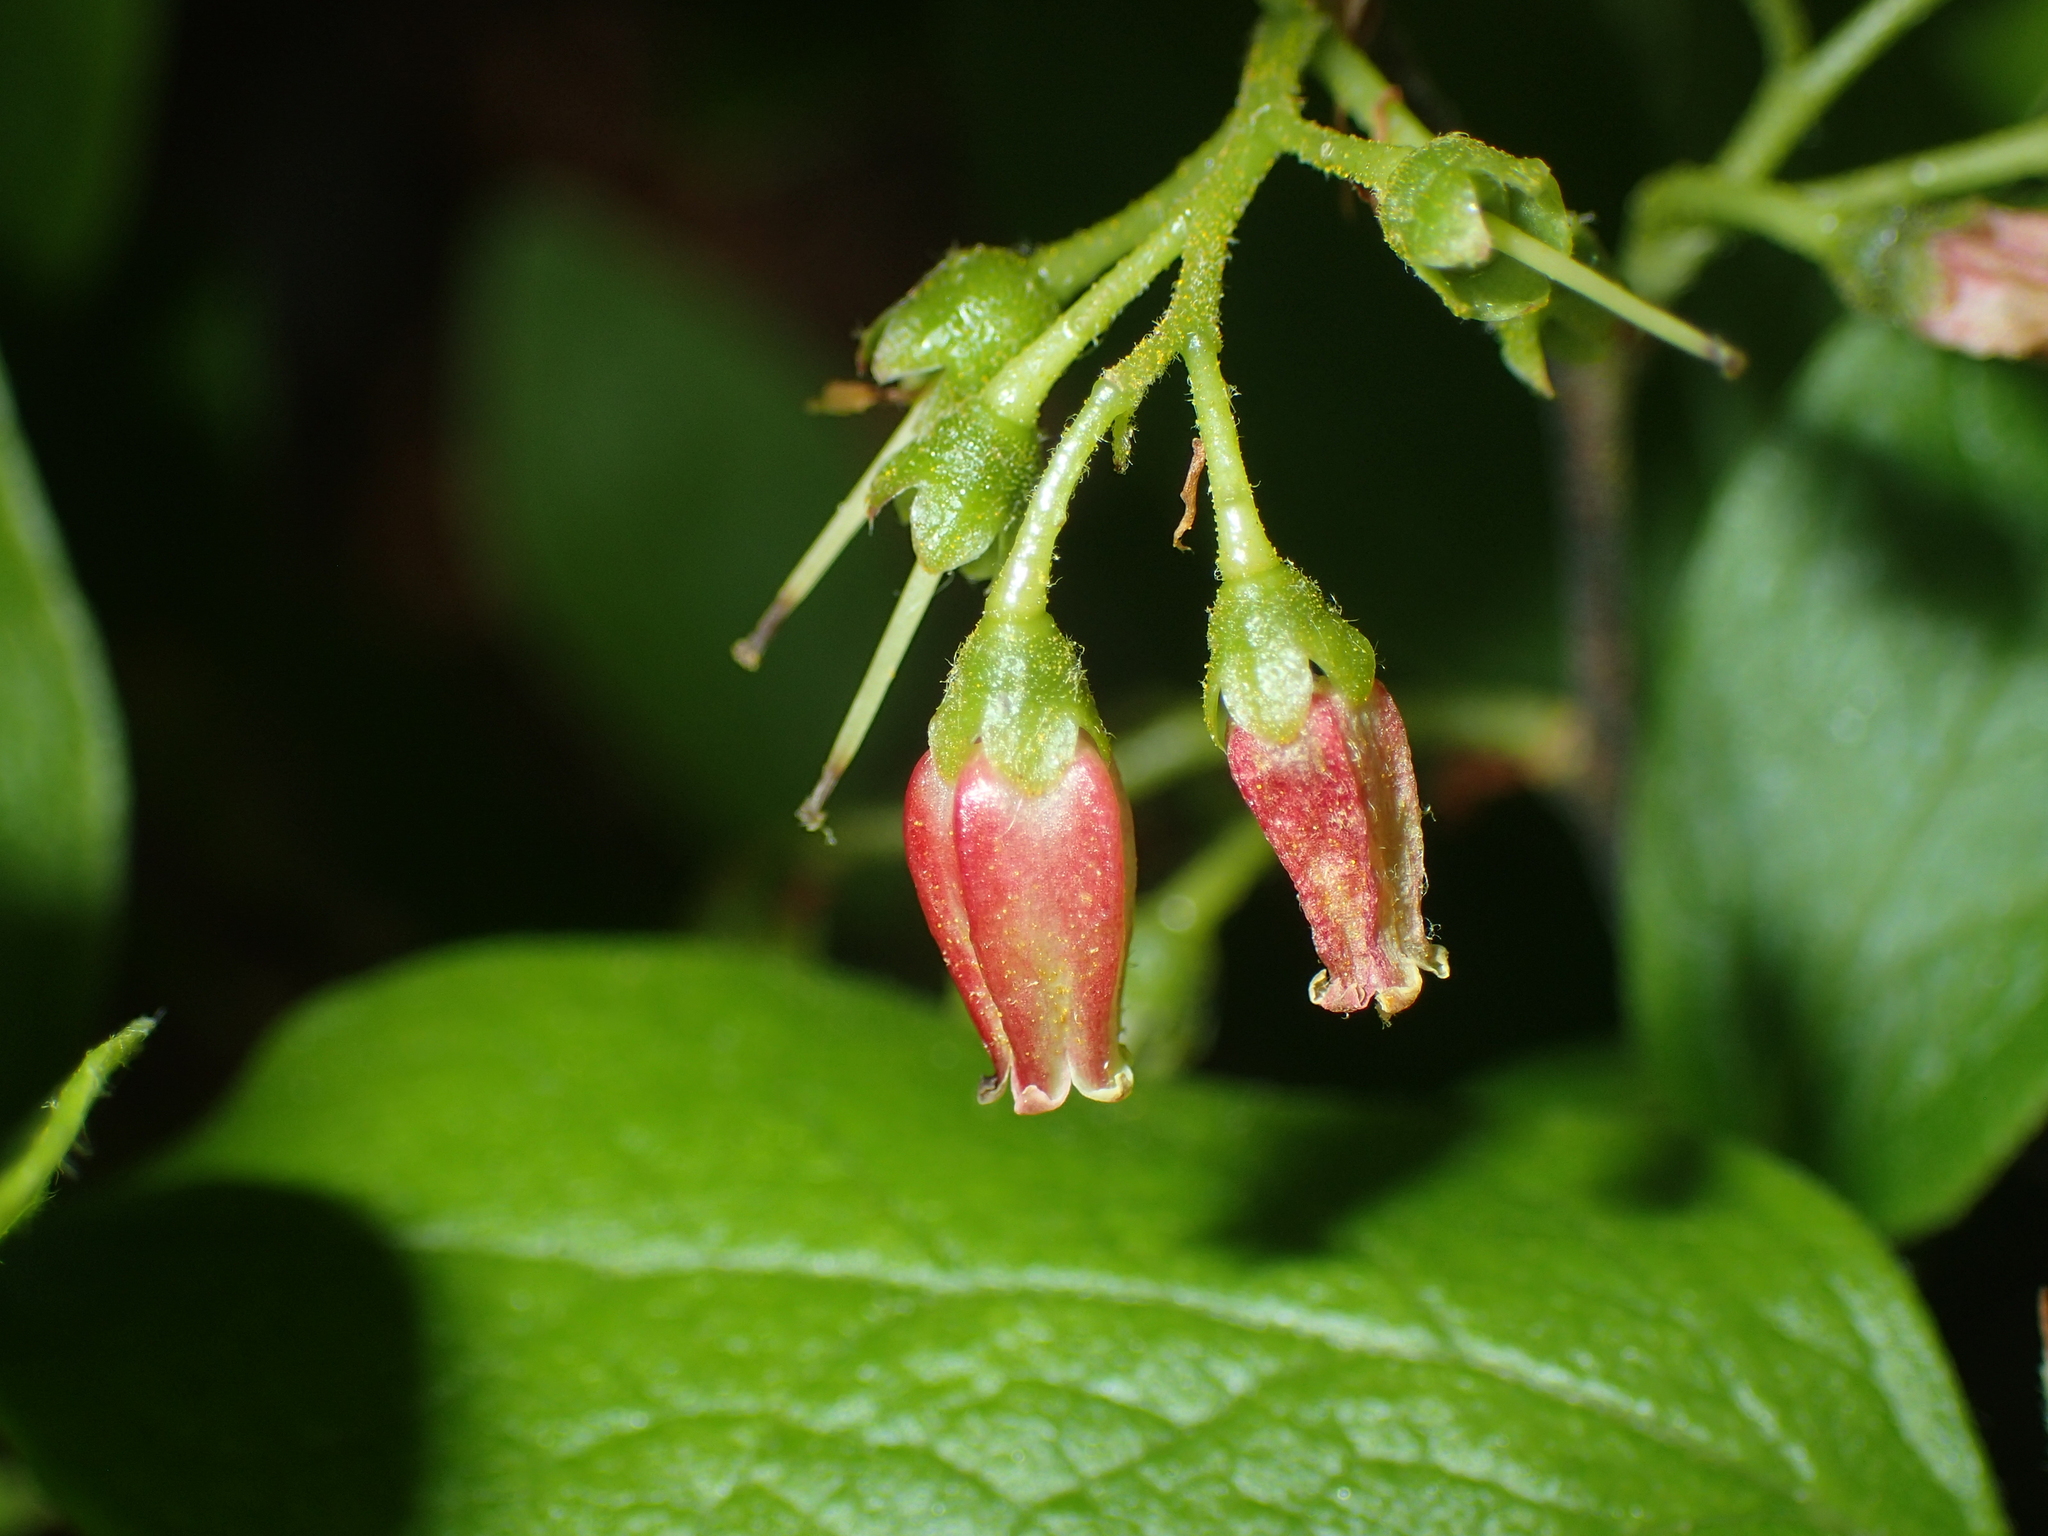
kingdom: Plantae
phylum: Tracheophyta
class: Magnoliopsida
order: Ericales
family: Ericaceae
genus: Gaylussacia
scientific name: Gaylussacia baccata
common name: Black huckleberry
